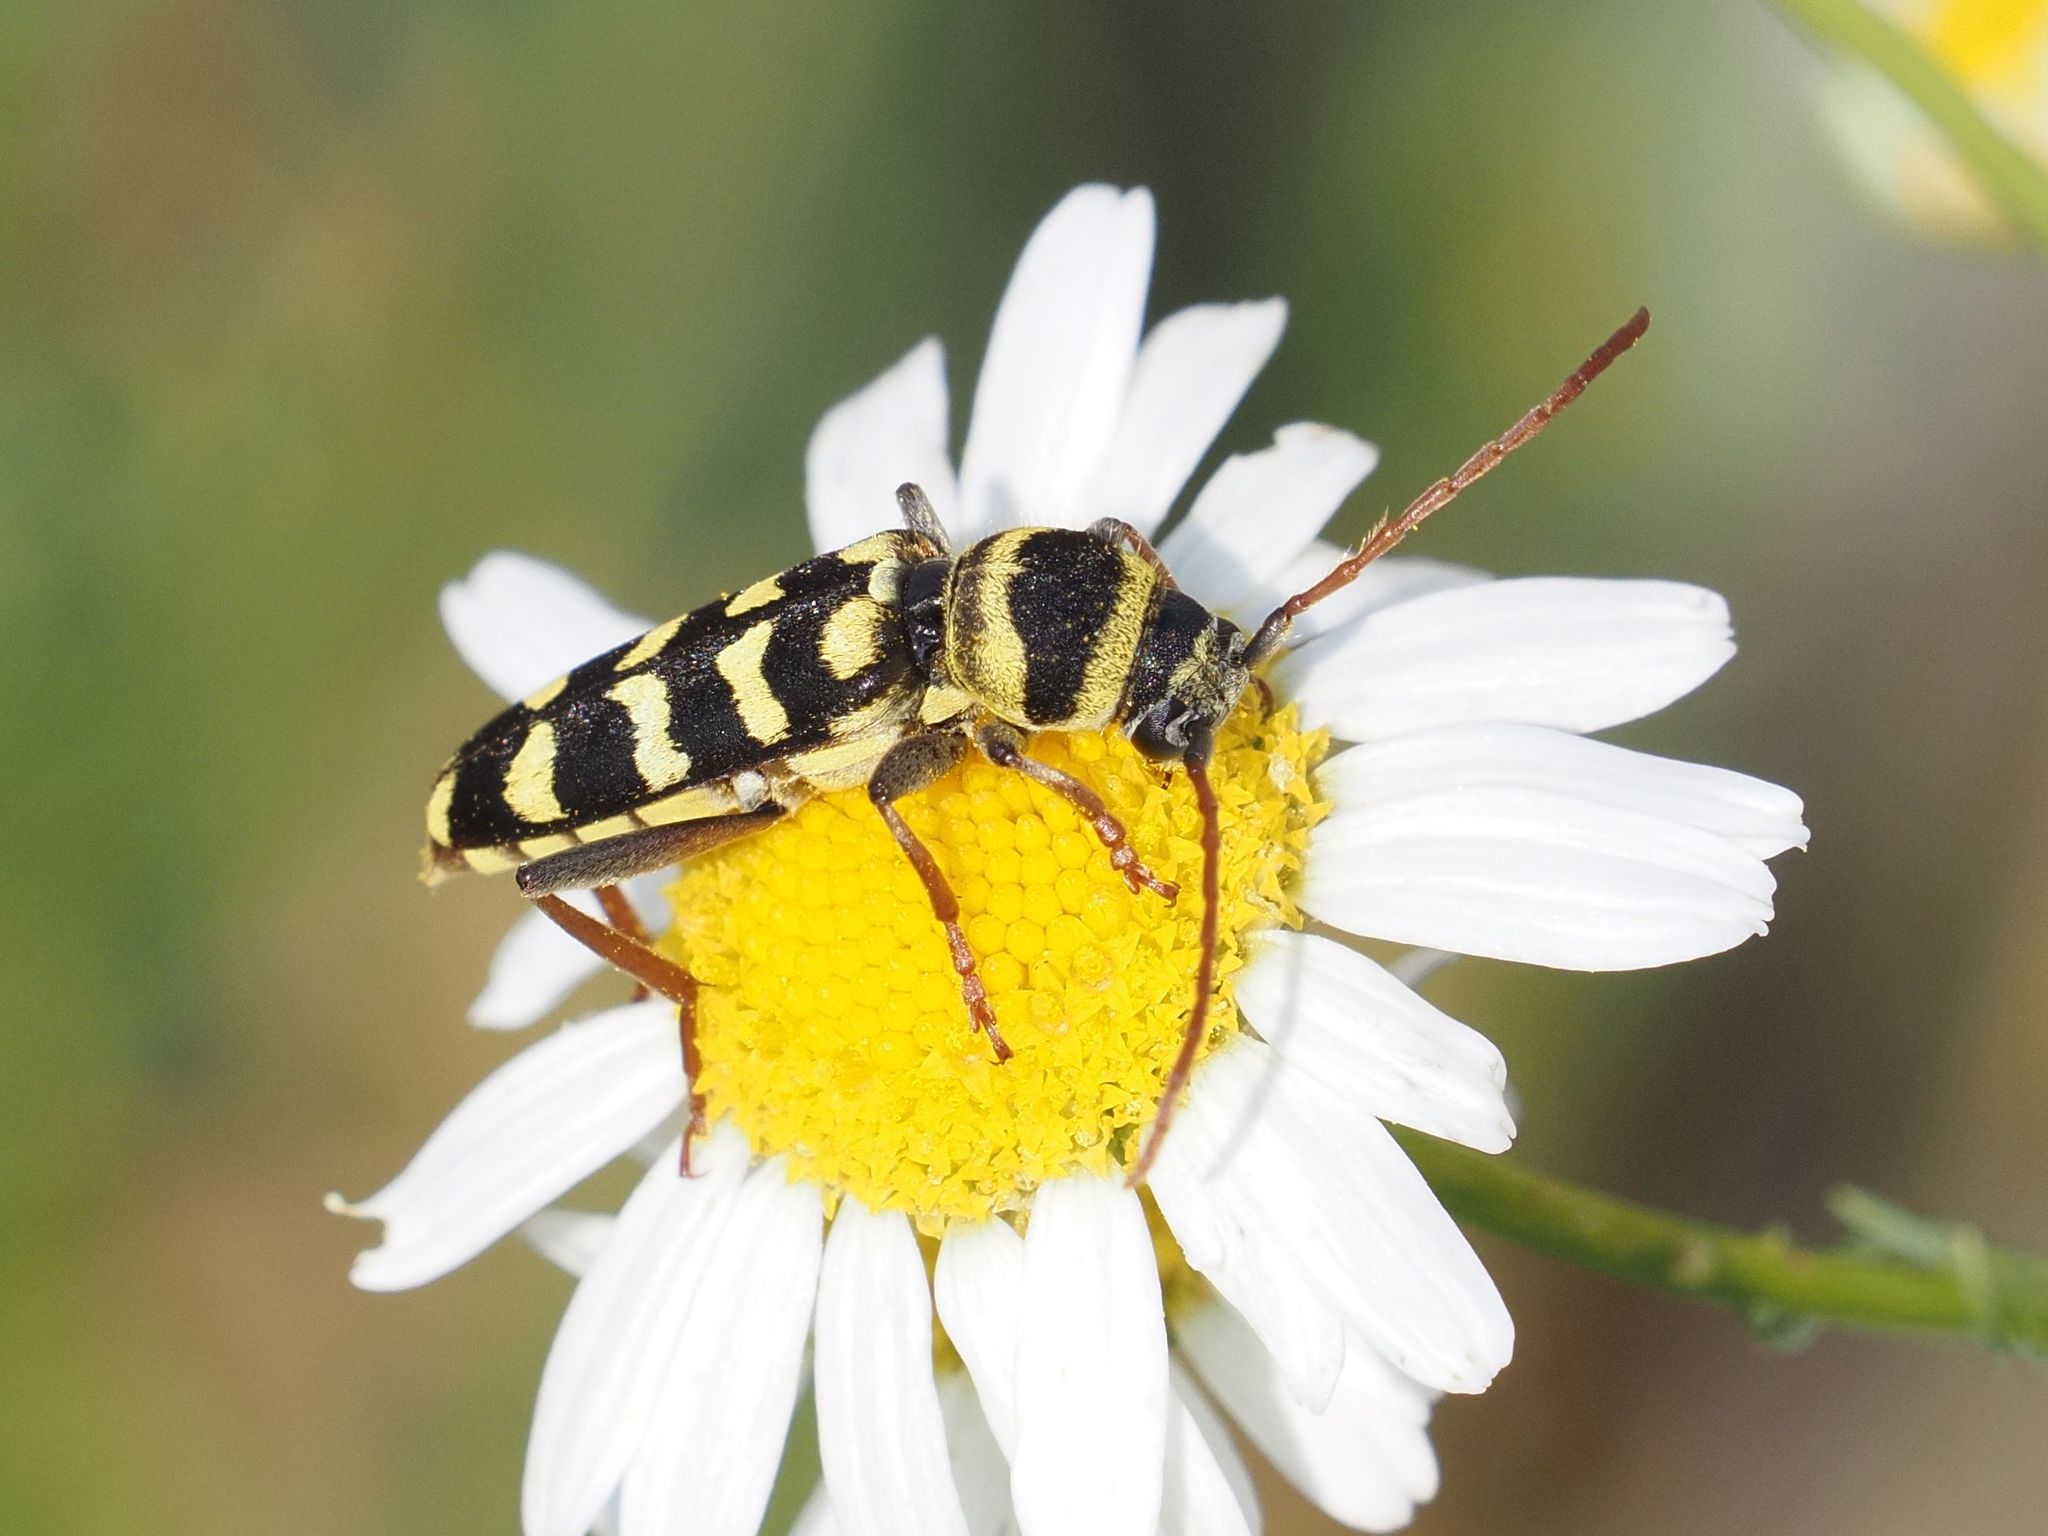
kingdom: Animalia
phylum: Arthropoda
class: Insecta
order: Coleoptera
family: Cerambycidae
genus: Plagionotus
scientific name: Plagionotus floralis
